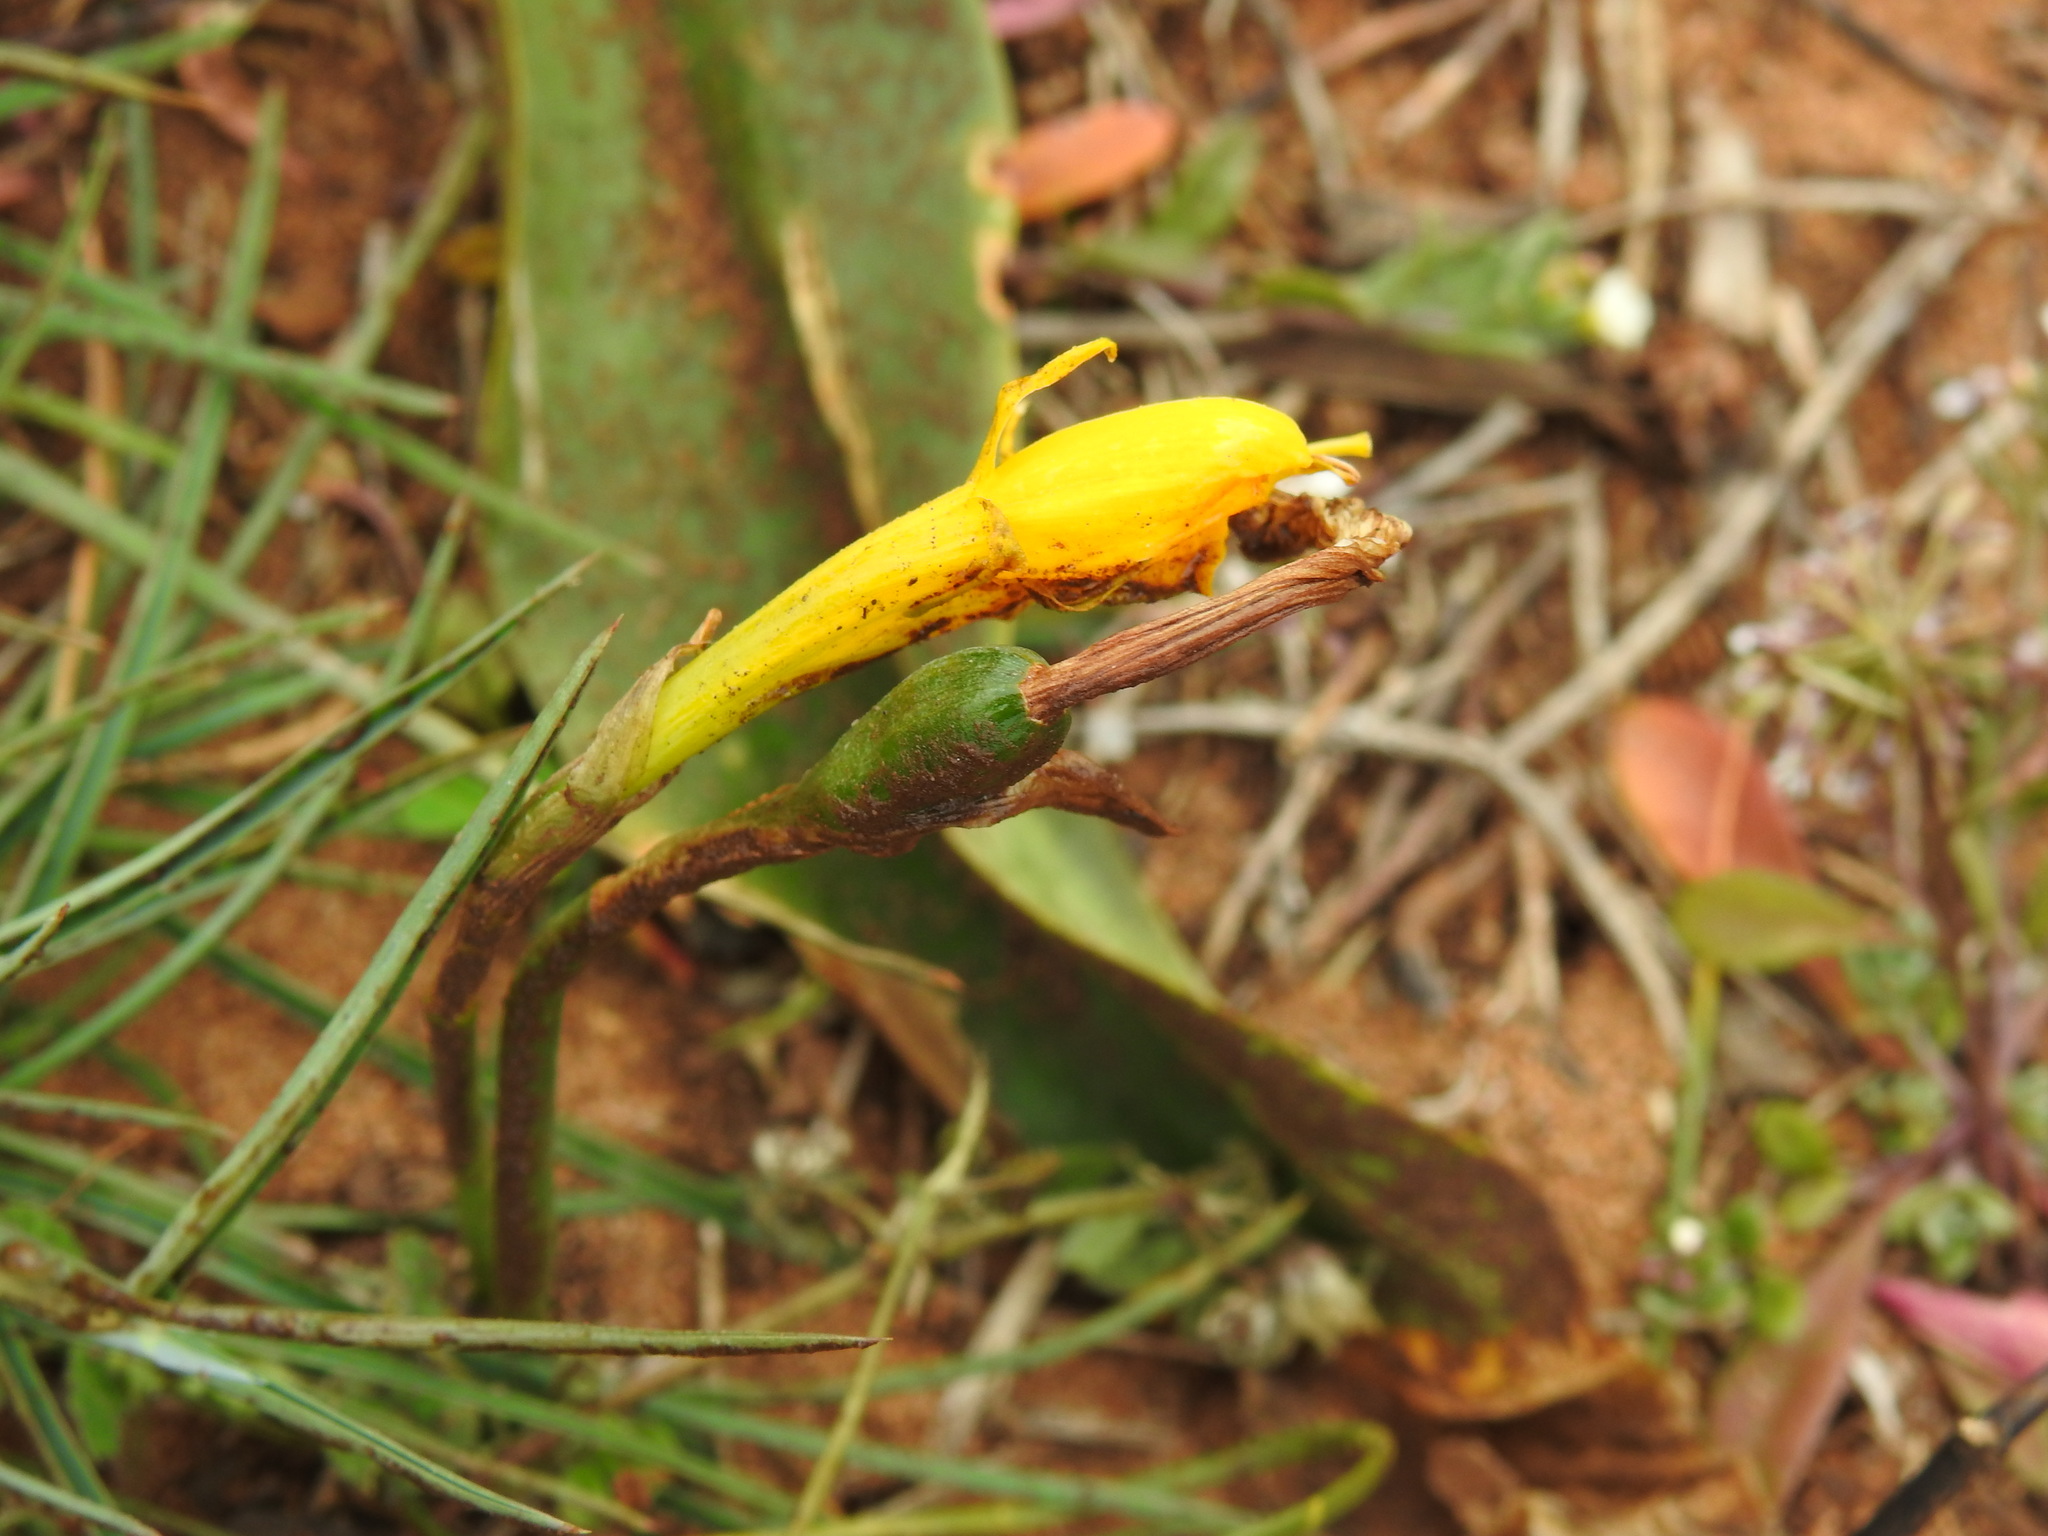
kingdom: Plantae
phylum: Tracheophyta
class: Liliopsida
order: Asparagales
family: Amaryllidaceae
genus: Narcissus
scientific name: Narcissus obesus
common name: Hoop petticoat daffodil
